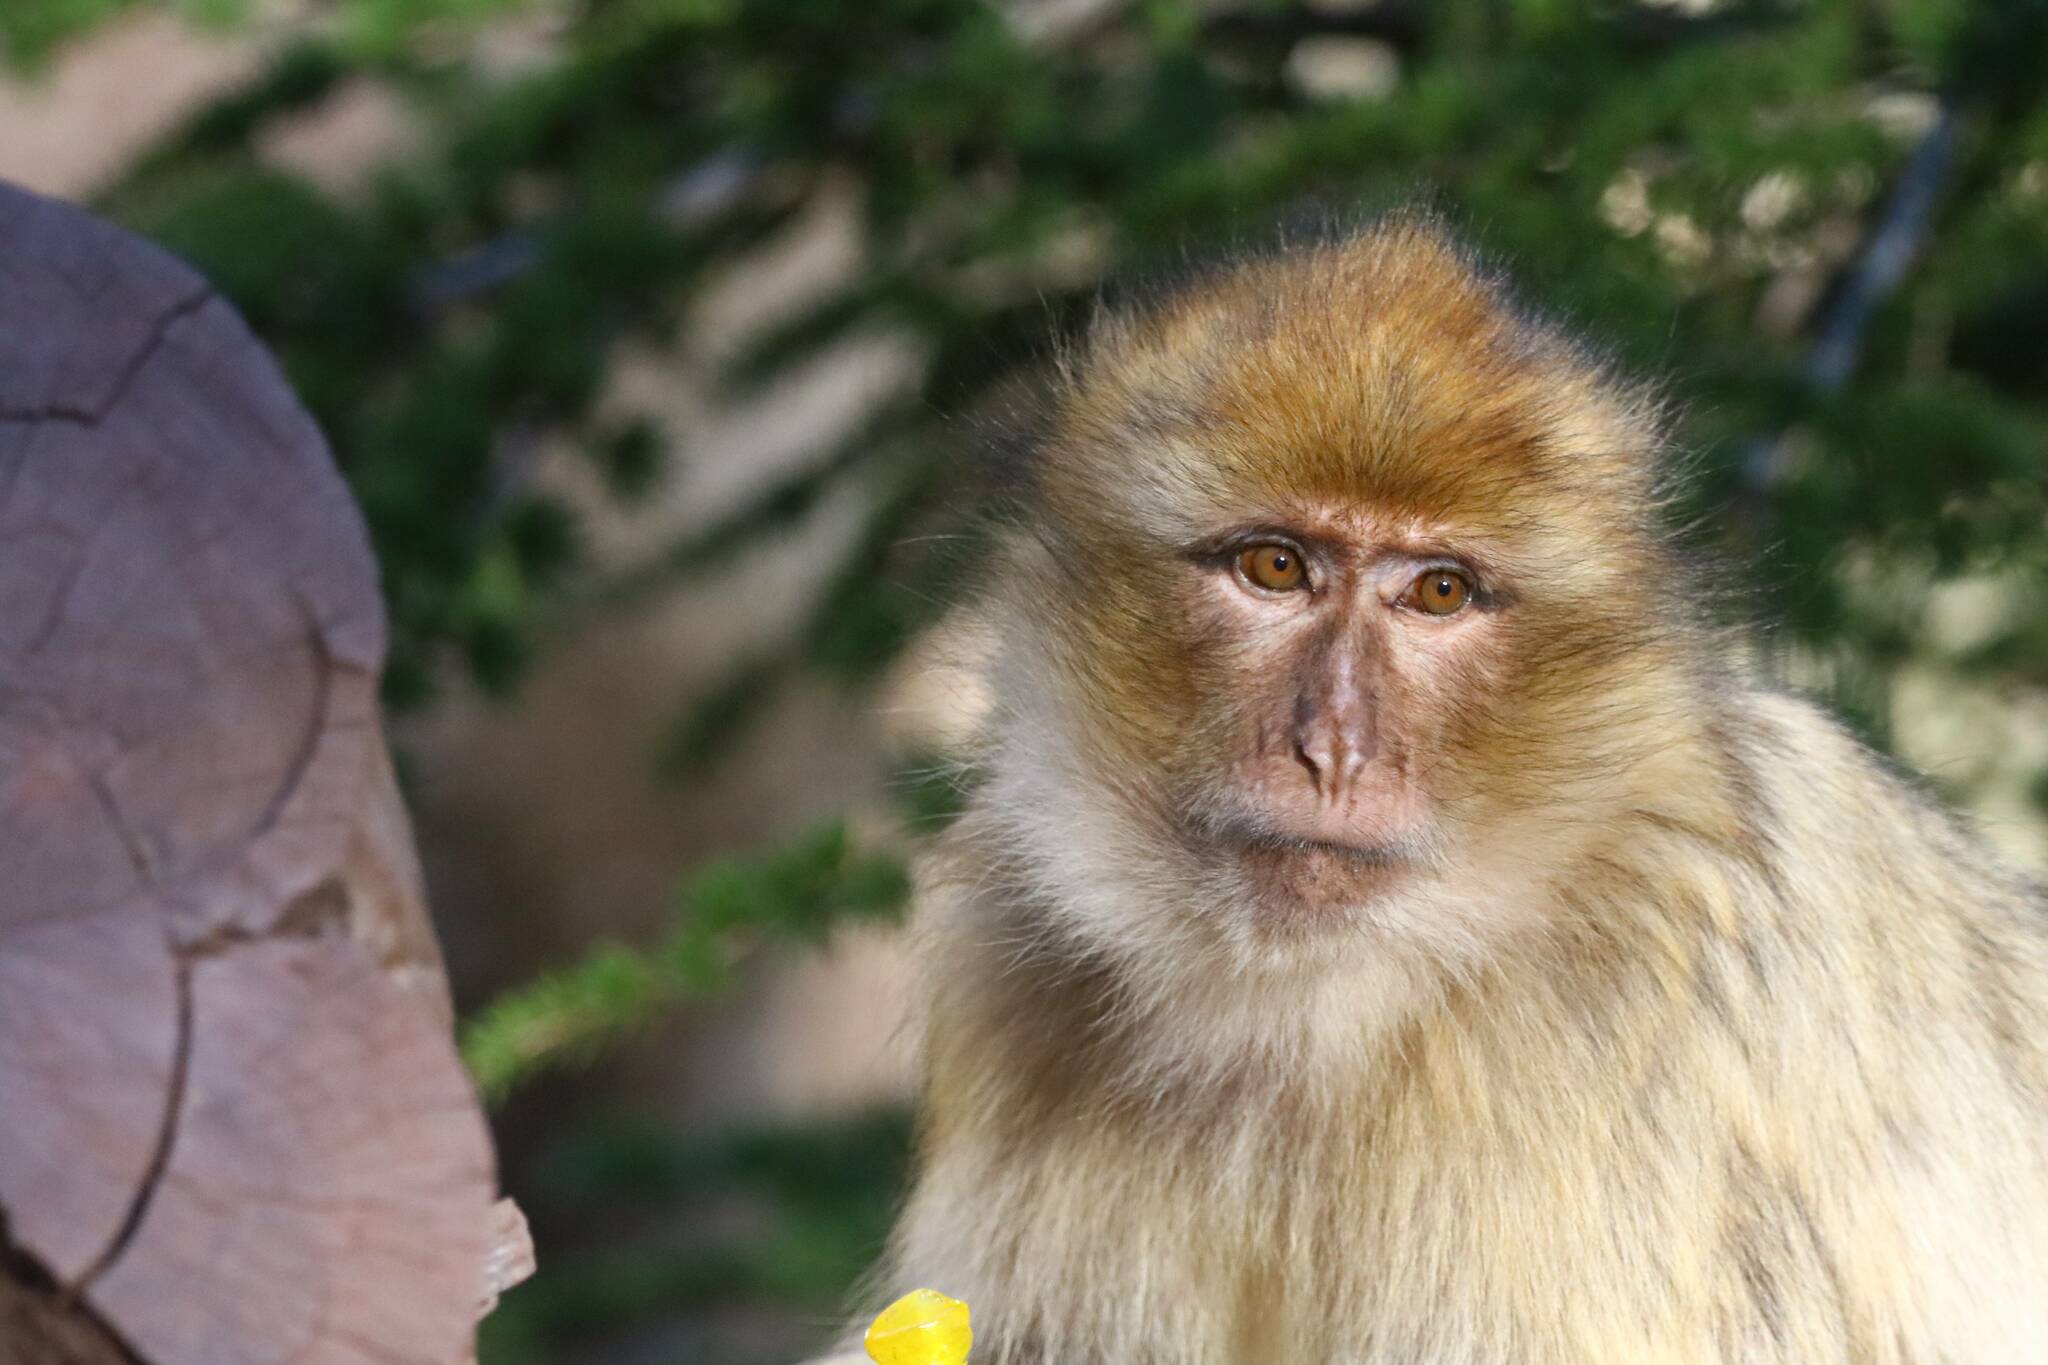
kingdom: Animalia
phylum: Chordata
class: Mammalia
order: Primates
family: Cercopithecidae
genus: Macaca
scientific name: Macaca sylvanus
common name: Barbary macaque
